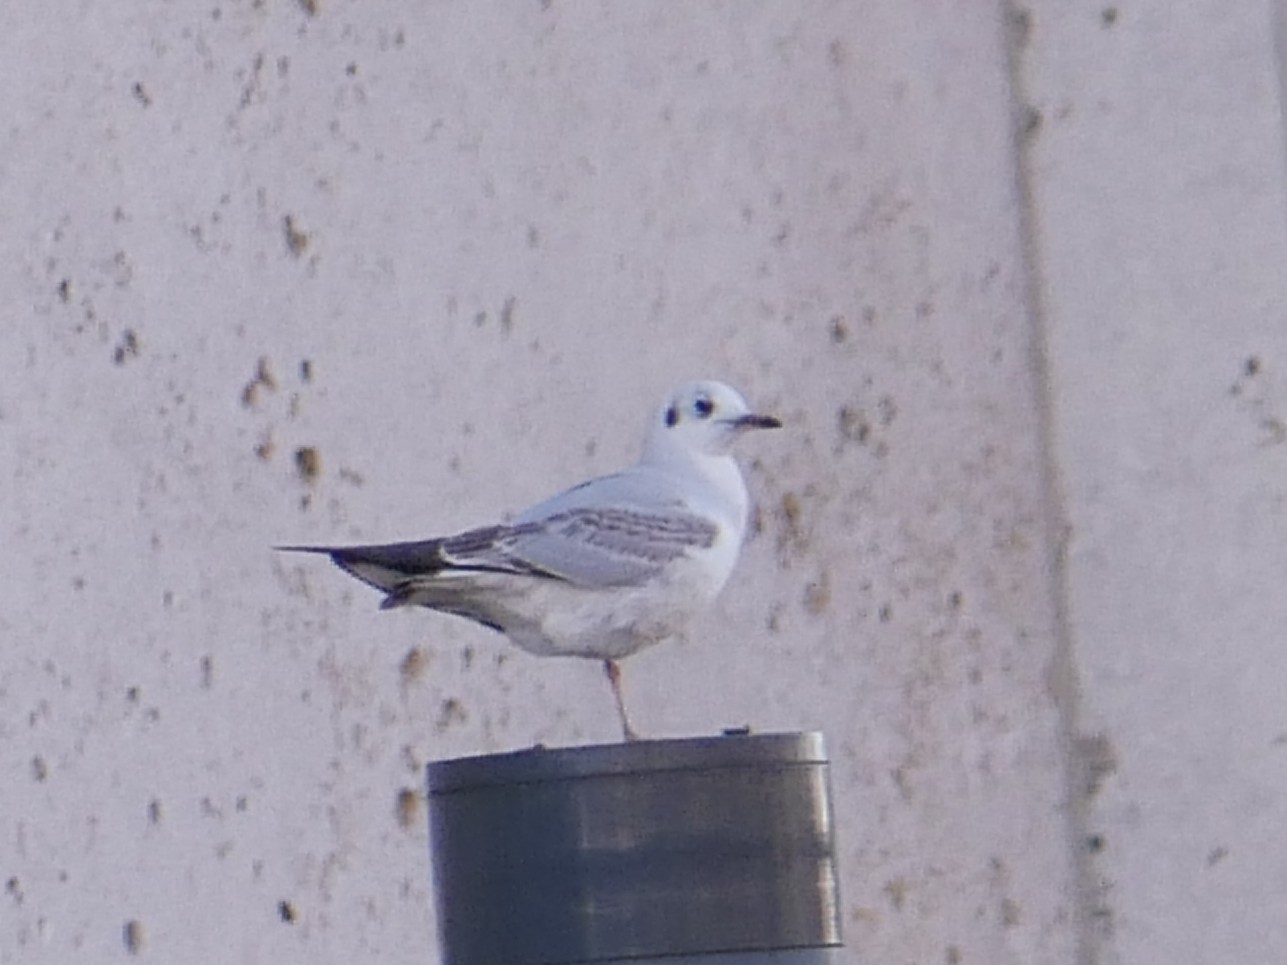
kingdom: Animalia
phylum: Chordata
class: Aves
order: Charadriiformes
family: Laridae
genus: Chroicocephalus
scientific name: Chroicocephalus ridibundus
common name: Black-headed gull
